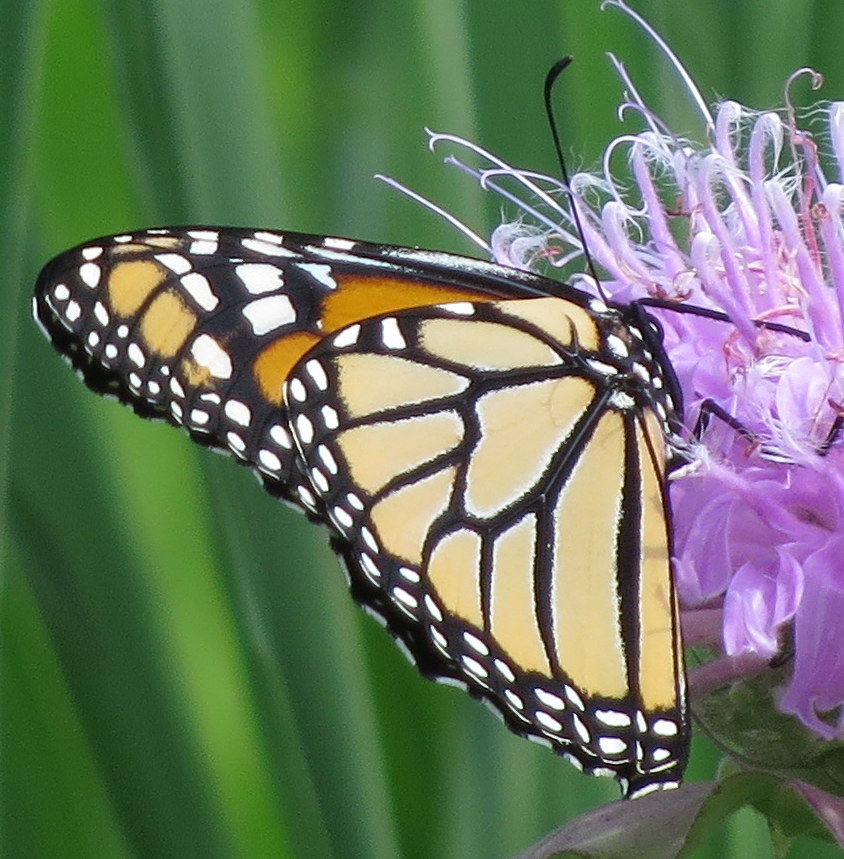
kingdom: Animalia
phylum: Arthropoda
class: Insecta
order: Lepidoptera
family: Nymphalidae
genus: Danaus
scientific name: Danaus plexippus
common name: Monarch
